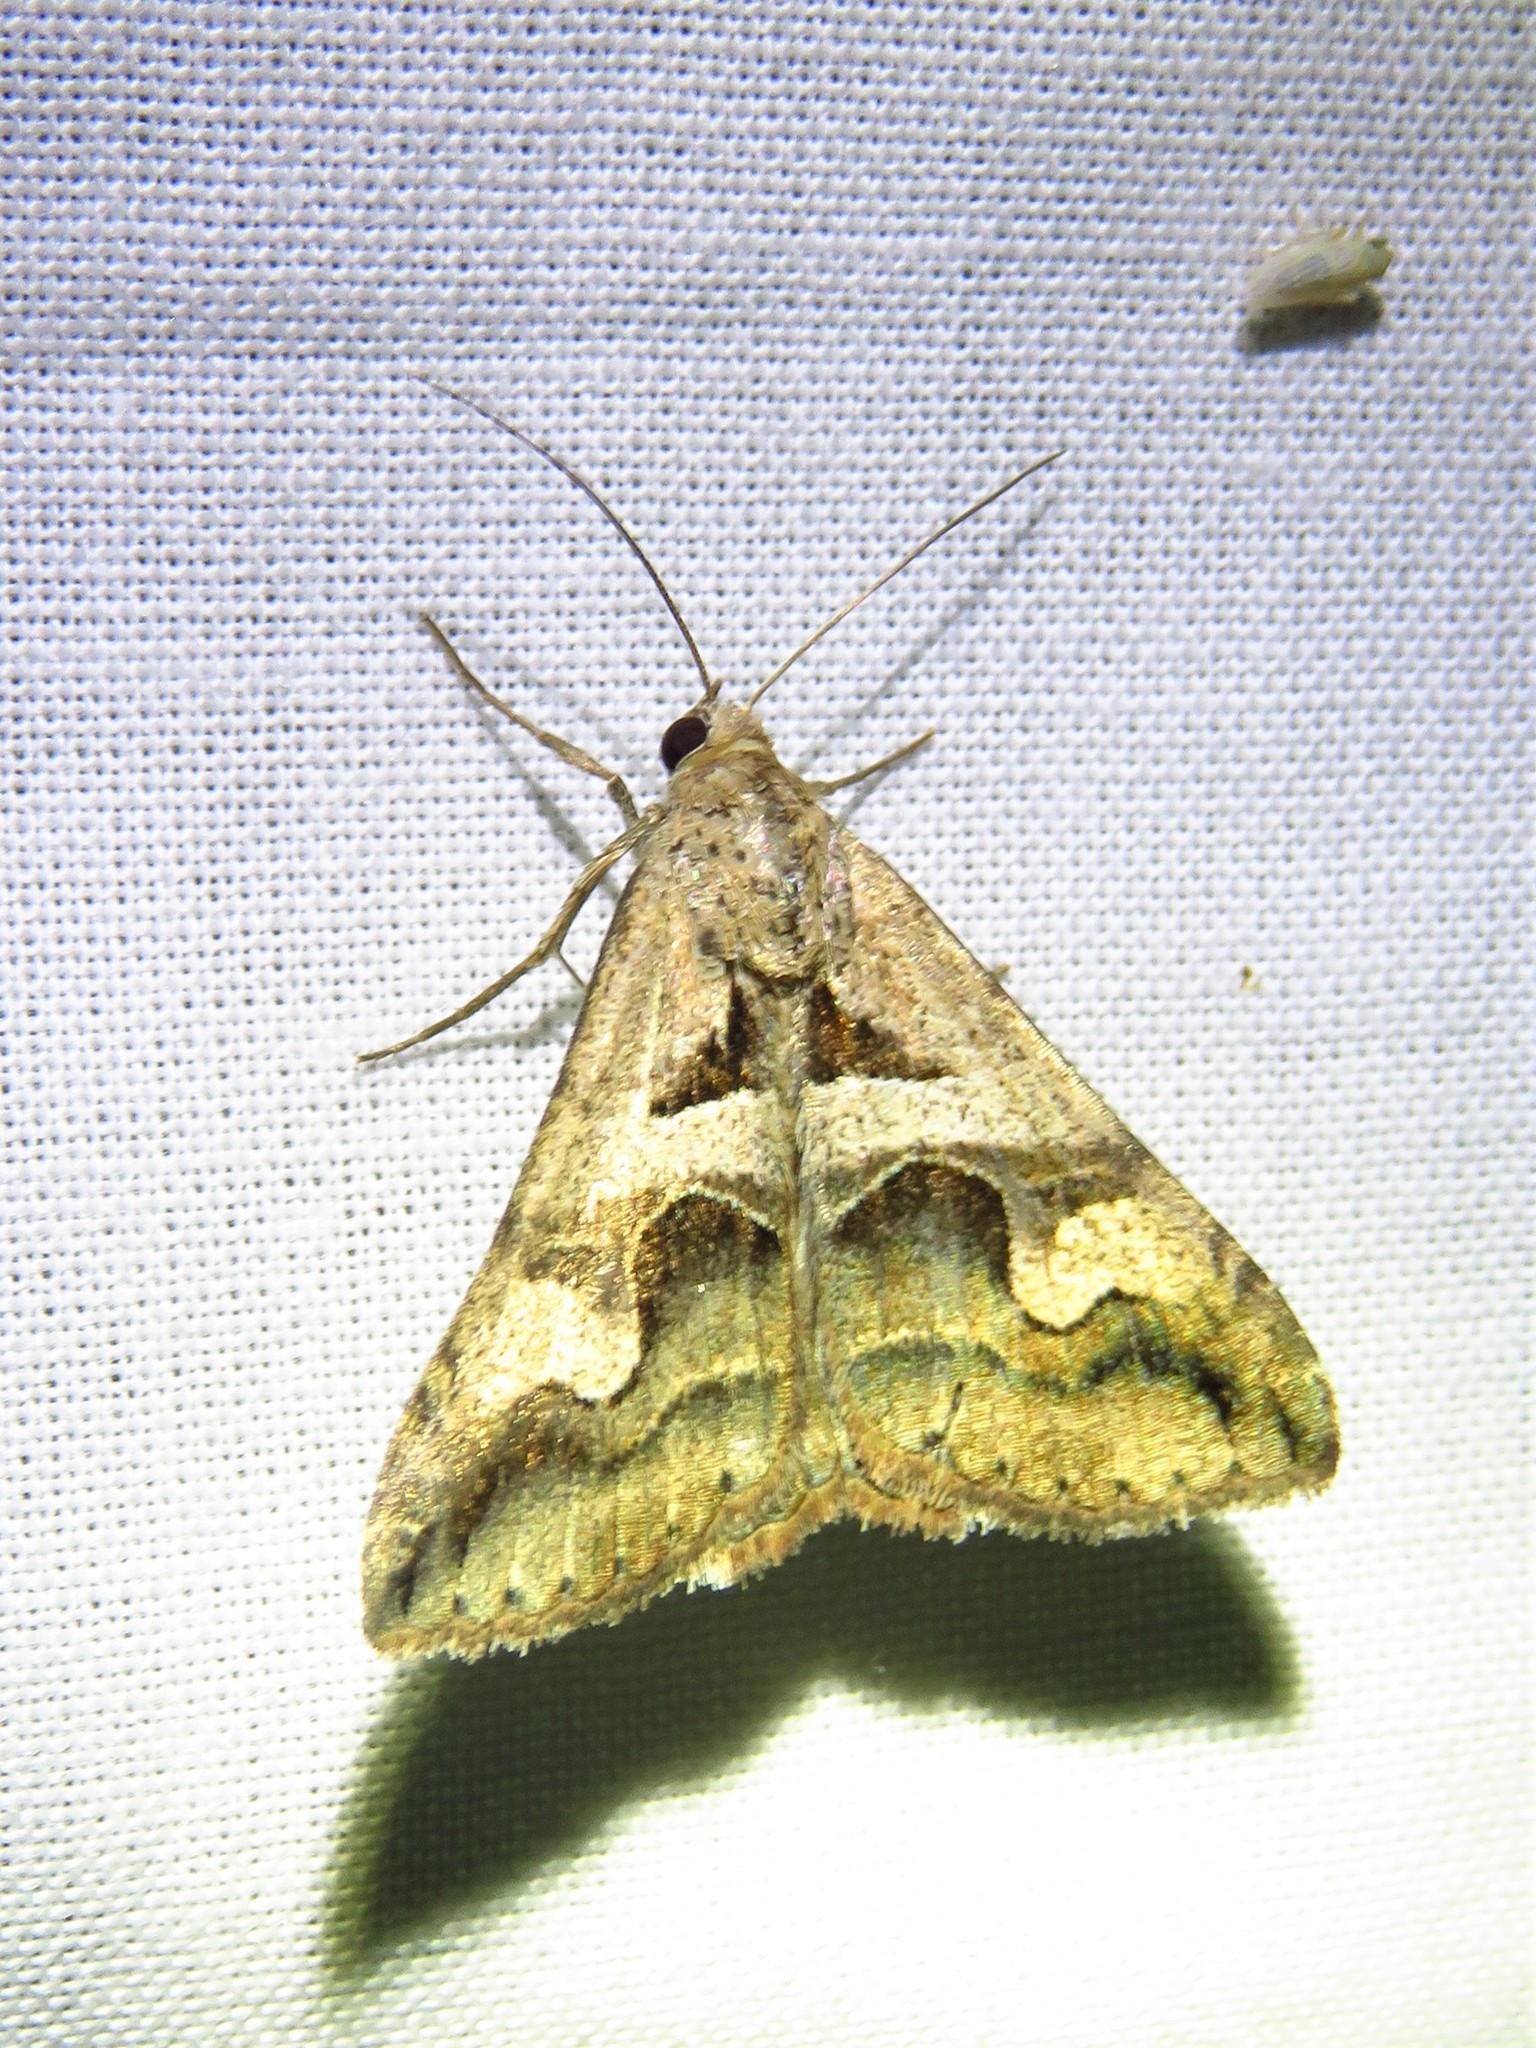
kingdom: Animalia
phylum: Arthropoda
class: Insecta
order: Lepidoptera
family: Erebidae
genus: Melipotis
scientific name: Melipotis cellaris
